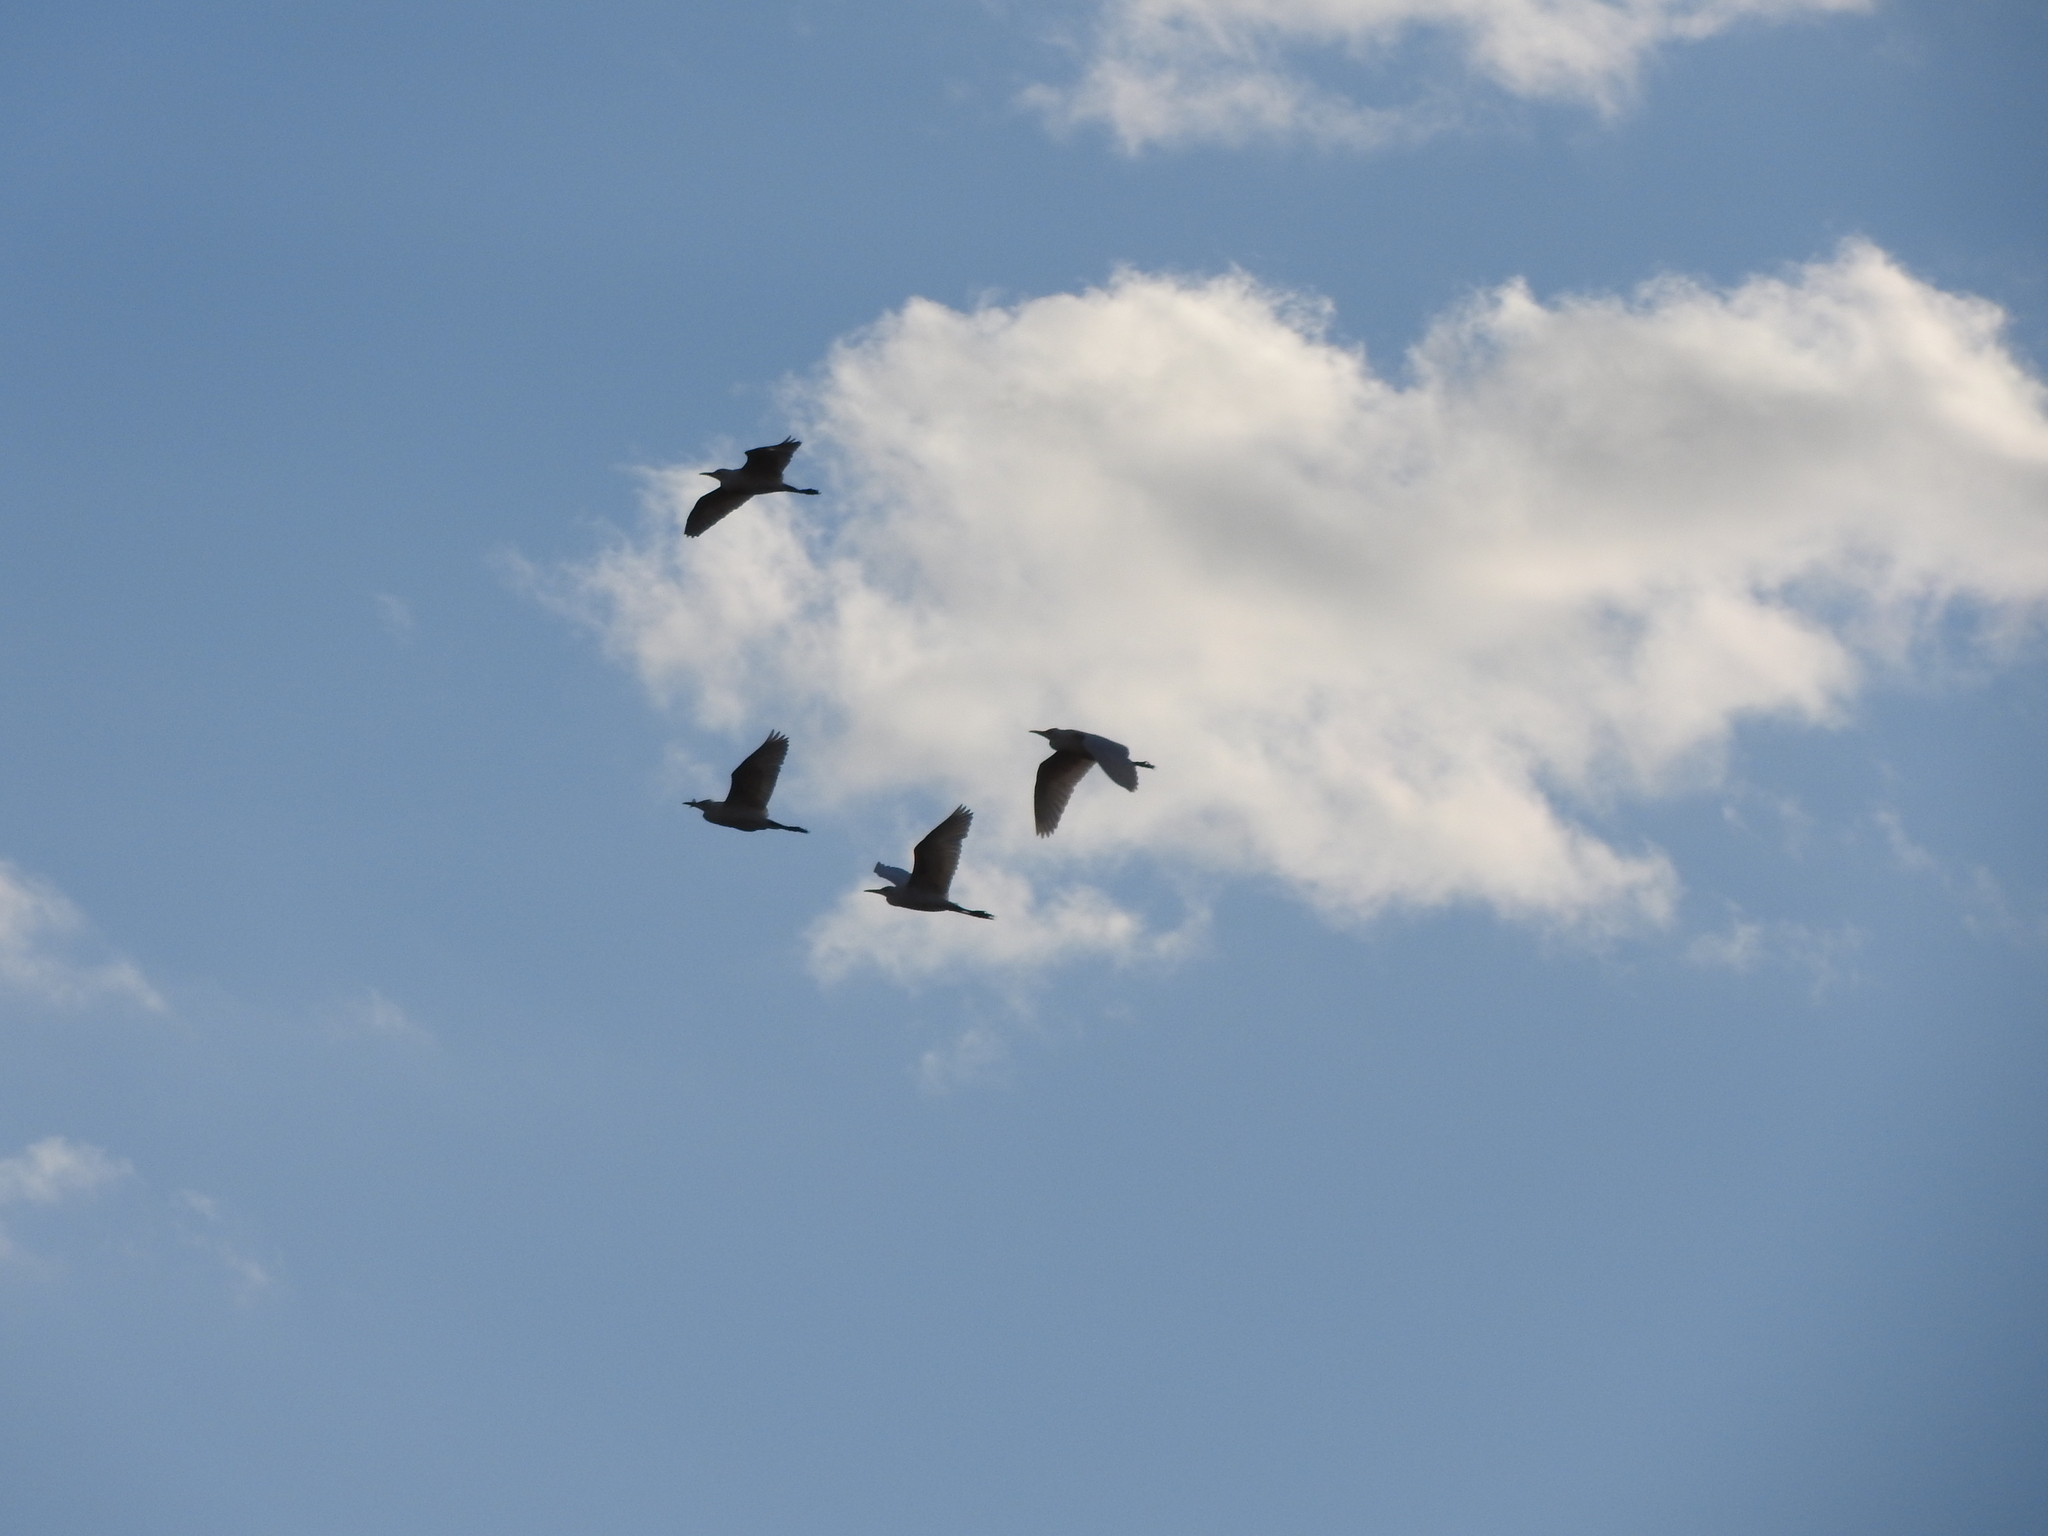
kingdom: Animalia
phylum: Chordata
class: Aves
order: Pelecaniformes
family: Ardeidae
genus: Bubulcus
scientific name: Bubulcus ibis
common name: Cattle egret
